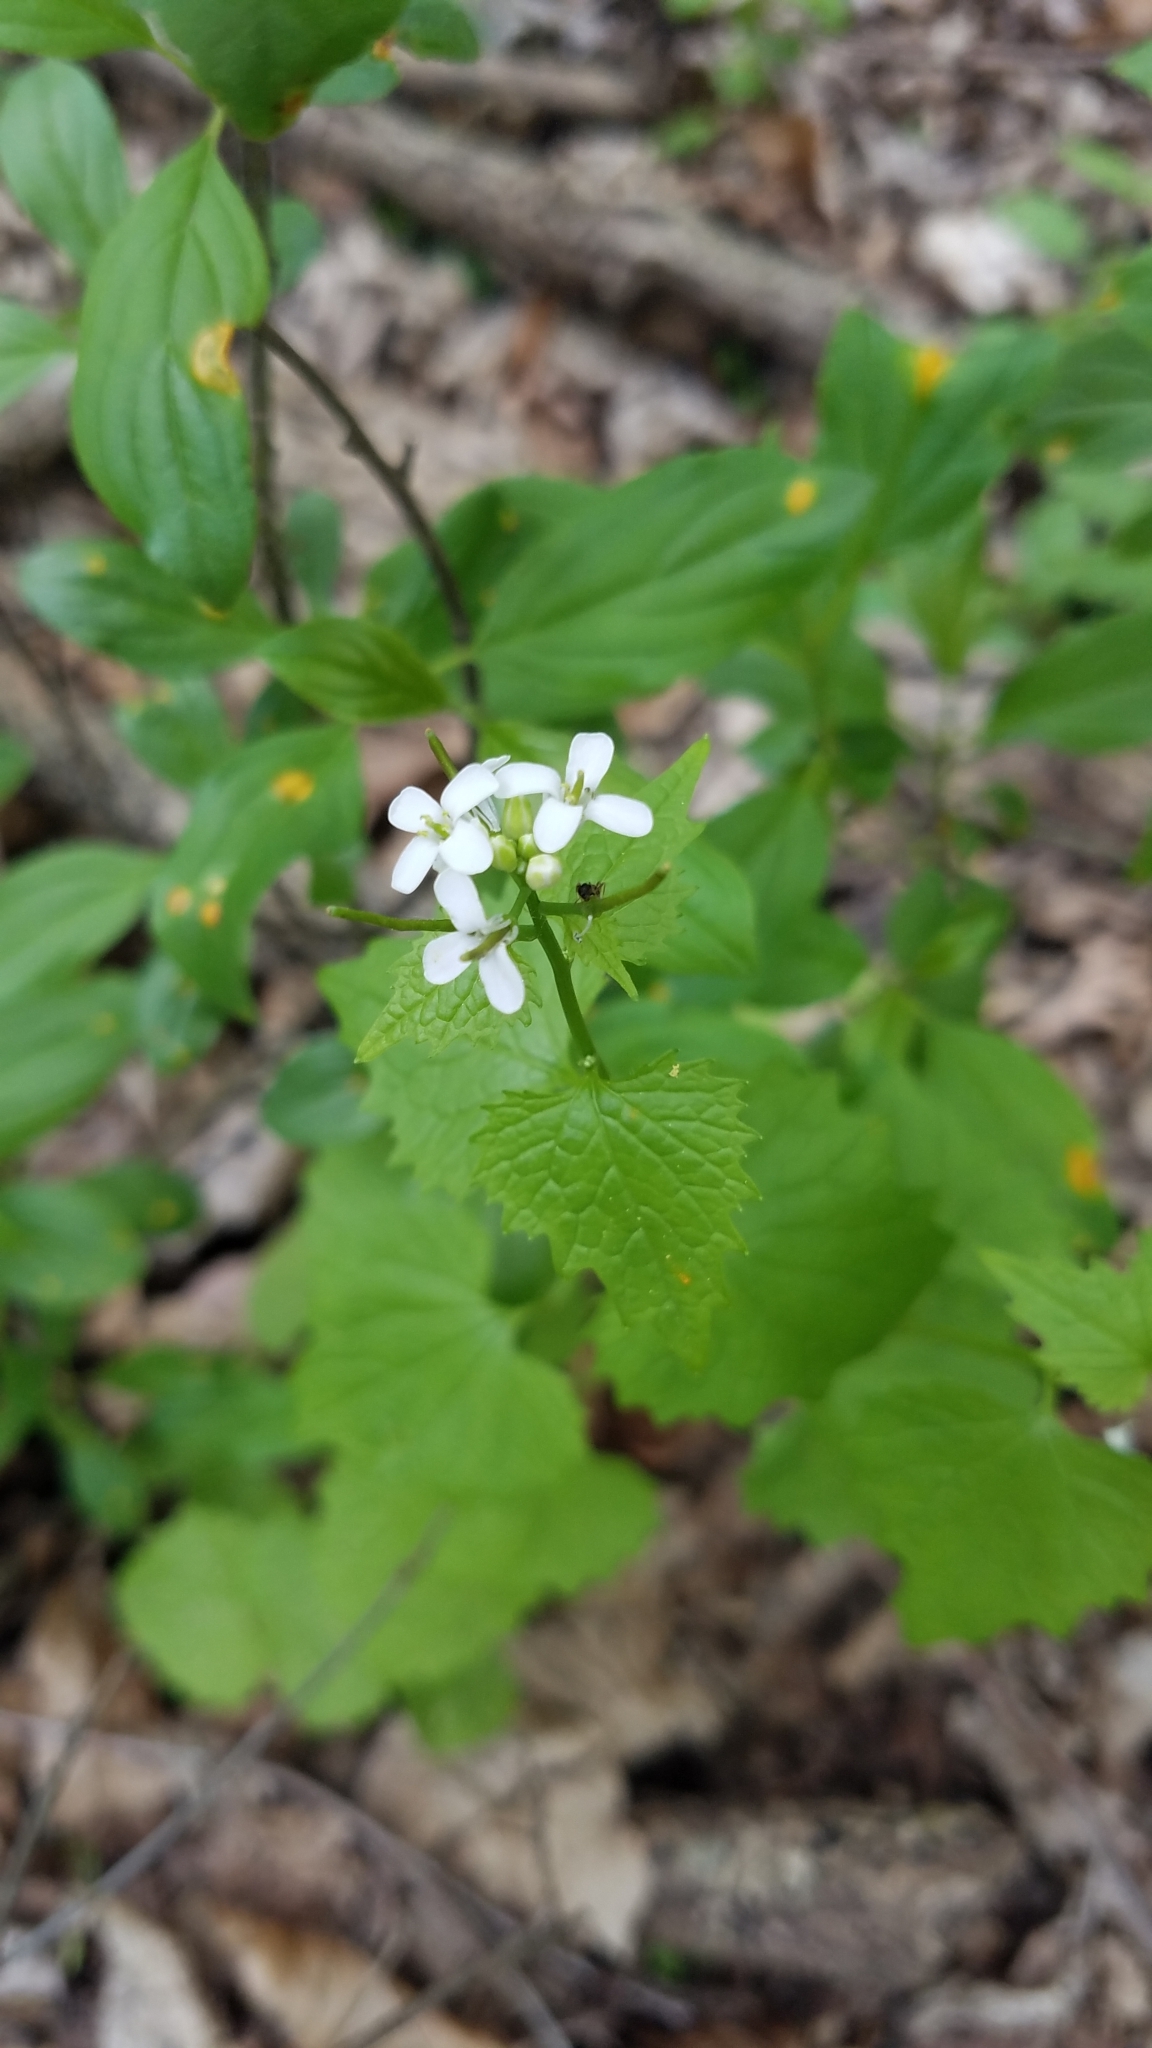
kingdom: Plantae
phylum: Tracheophyta
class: Magnoliopsida
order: Brassicales
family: Brassicaceae
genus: Alliaria
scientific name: Alliaria petiolata
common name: Garlic mustard
